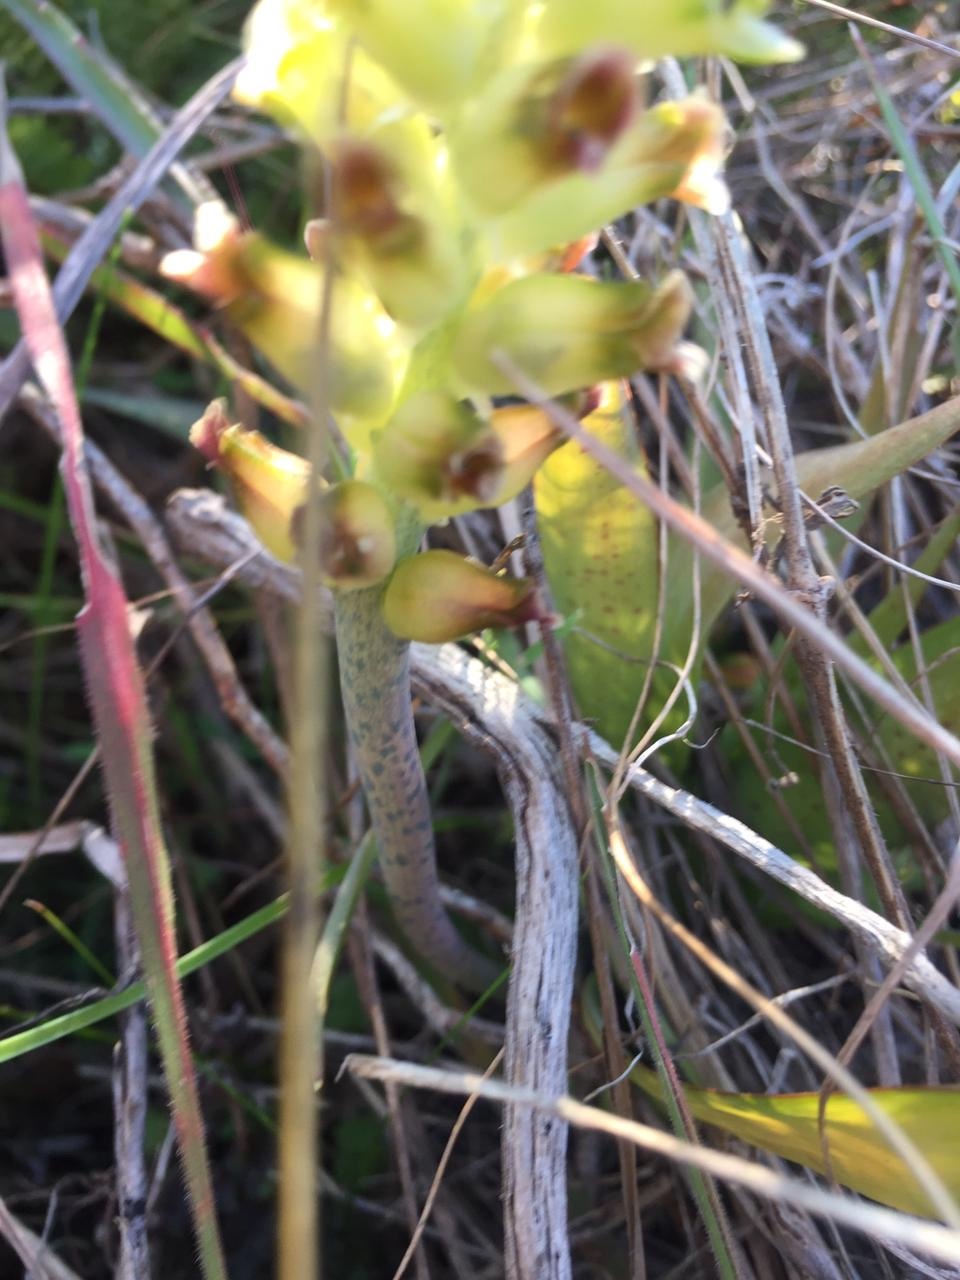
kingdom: Plantae
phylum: Tracheophyta
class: Liliopsida
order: Asparagales
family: Asparagaceae
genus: Lachenalia
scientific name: Lachenalia longibracteata
